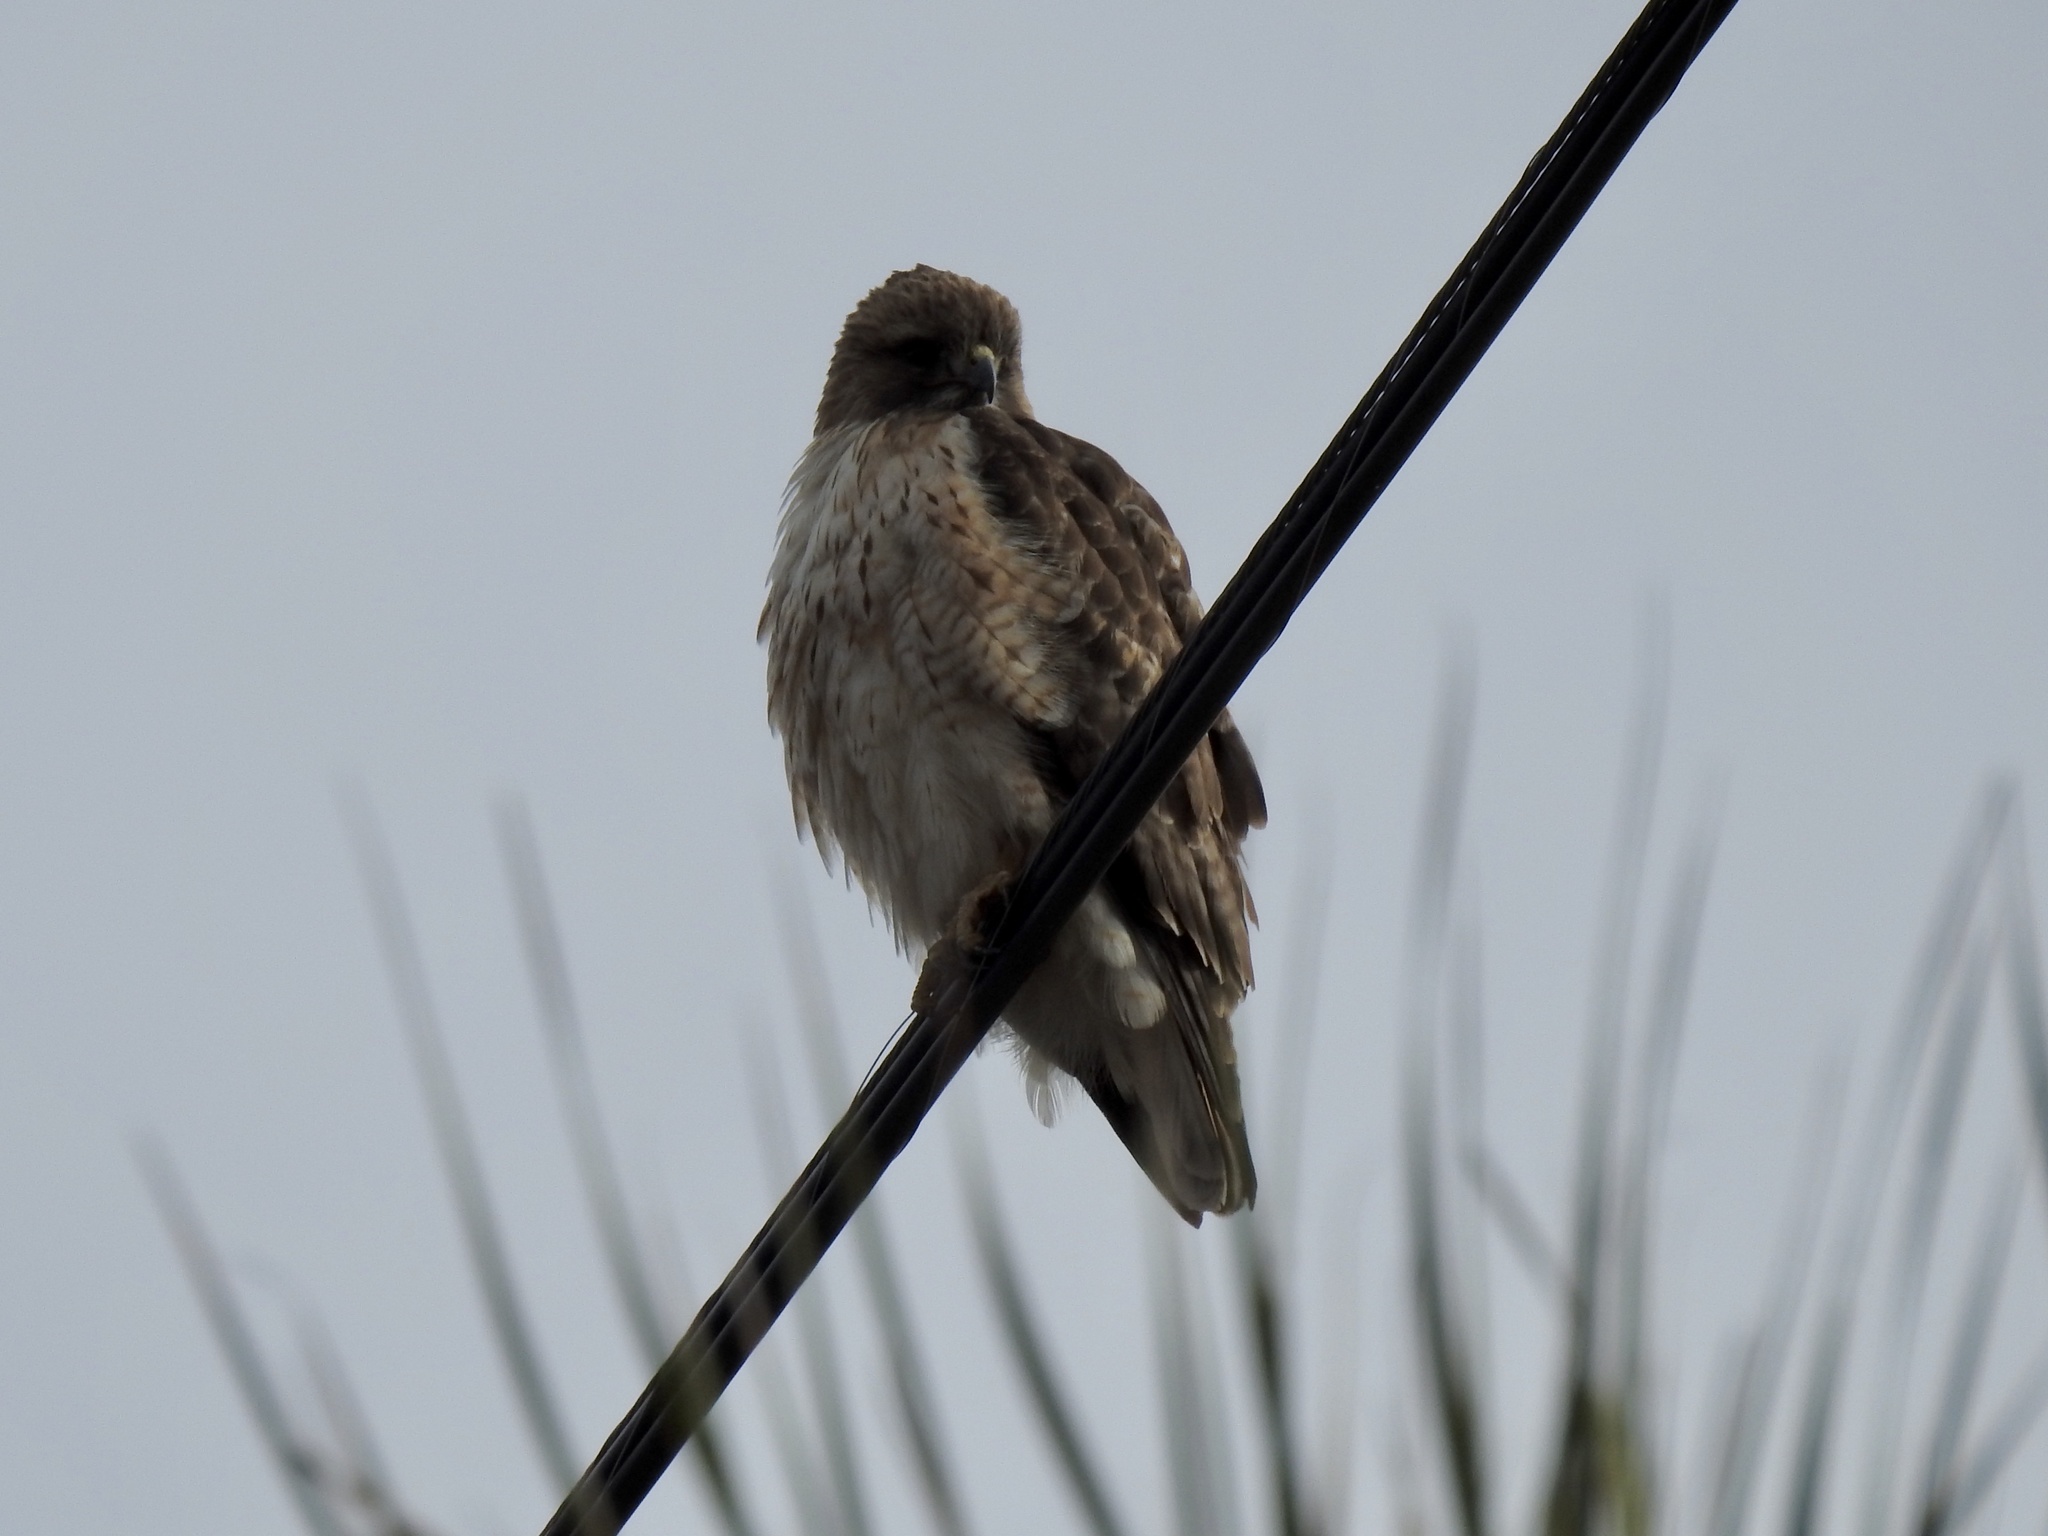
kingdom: Animalia
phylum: Chordata
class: Aves
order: Accipitriformes
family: Accipitridae
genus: Buteo
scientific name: Buteo jamaicensis
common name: Red-tailed hawk
